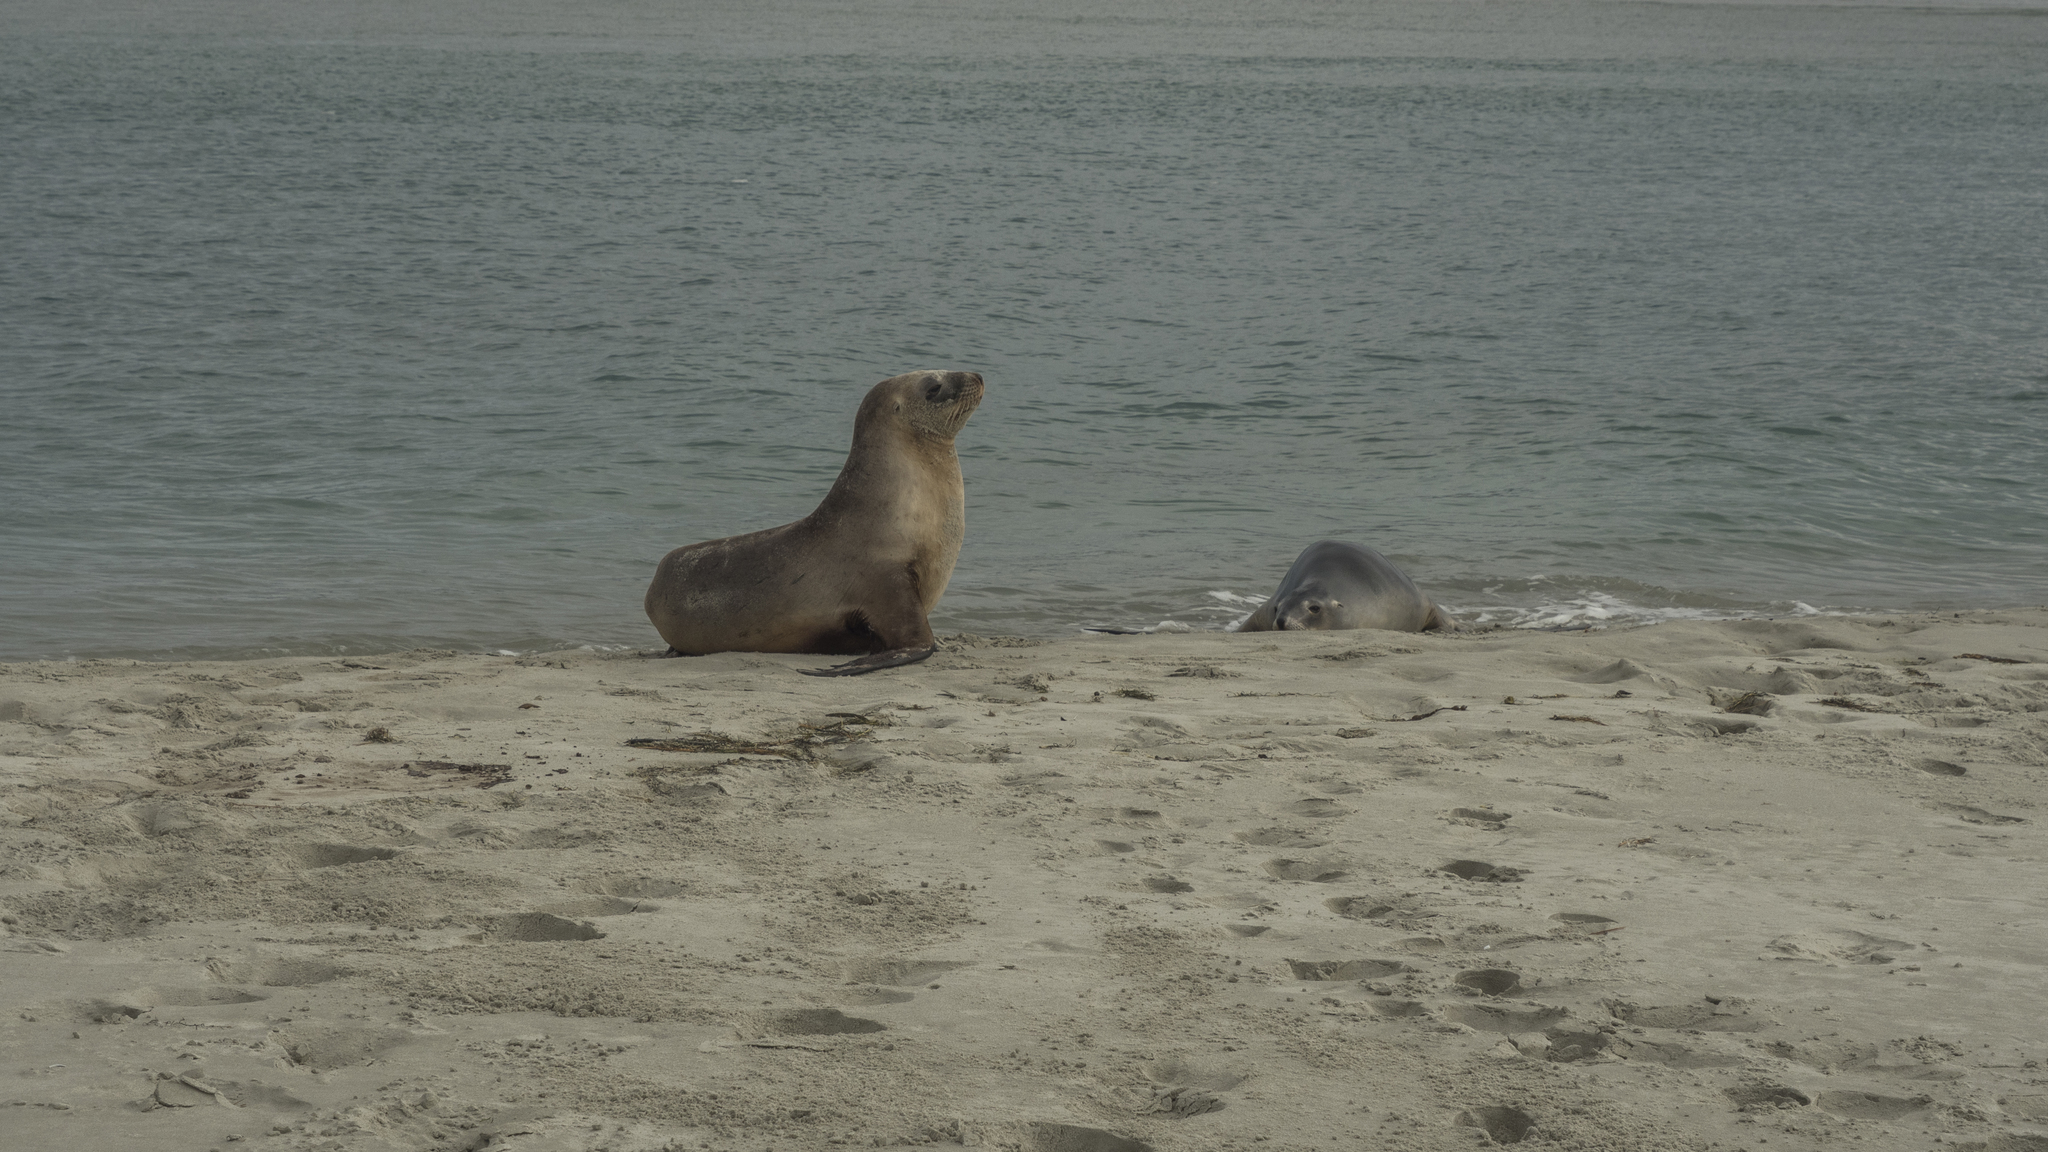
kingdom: Animalia
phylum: Chordata
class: Mammalia
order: Carnivora
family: Otariidae
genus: Phocarctos
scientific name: Phocarctos hookeri
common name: New zealand sea lion
